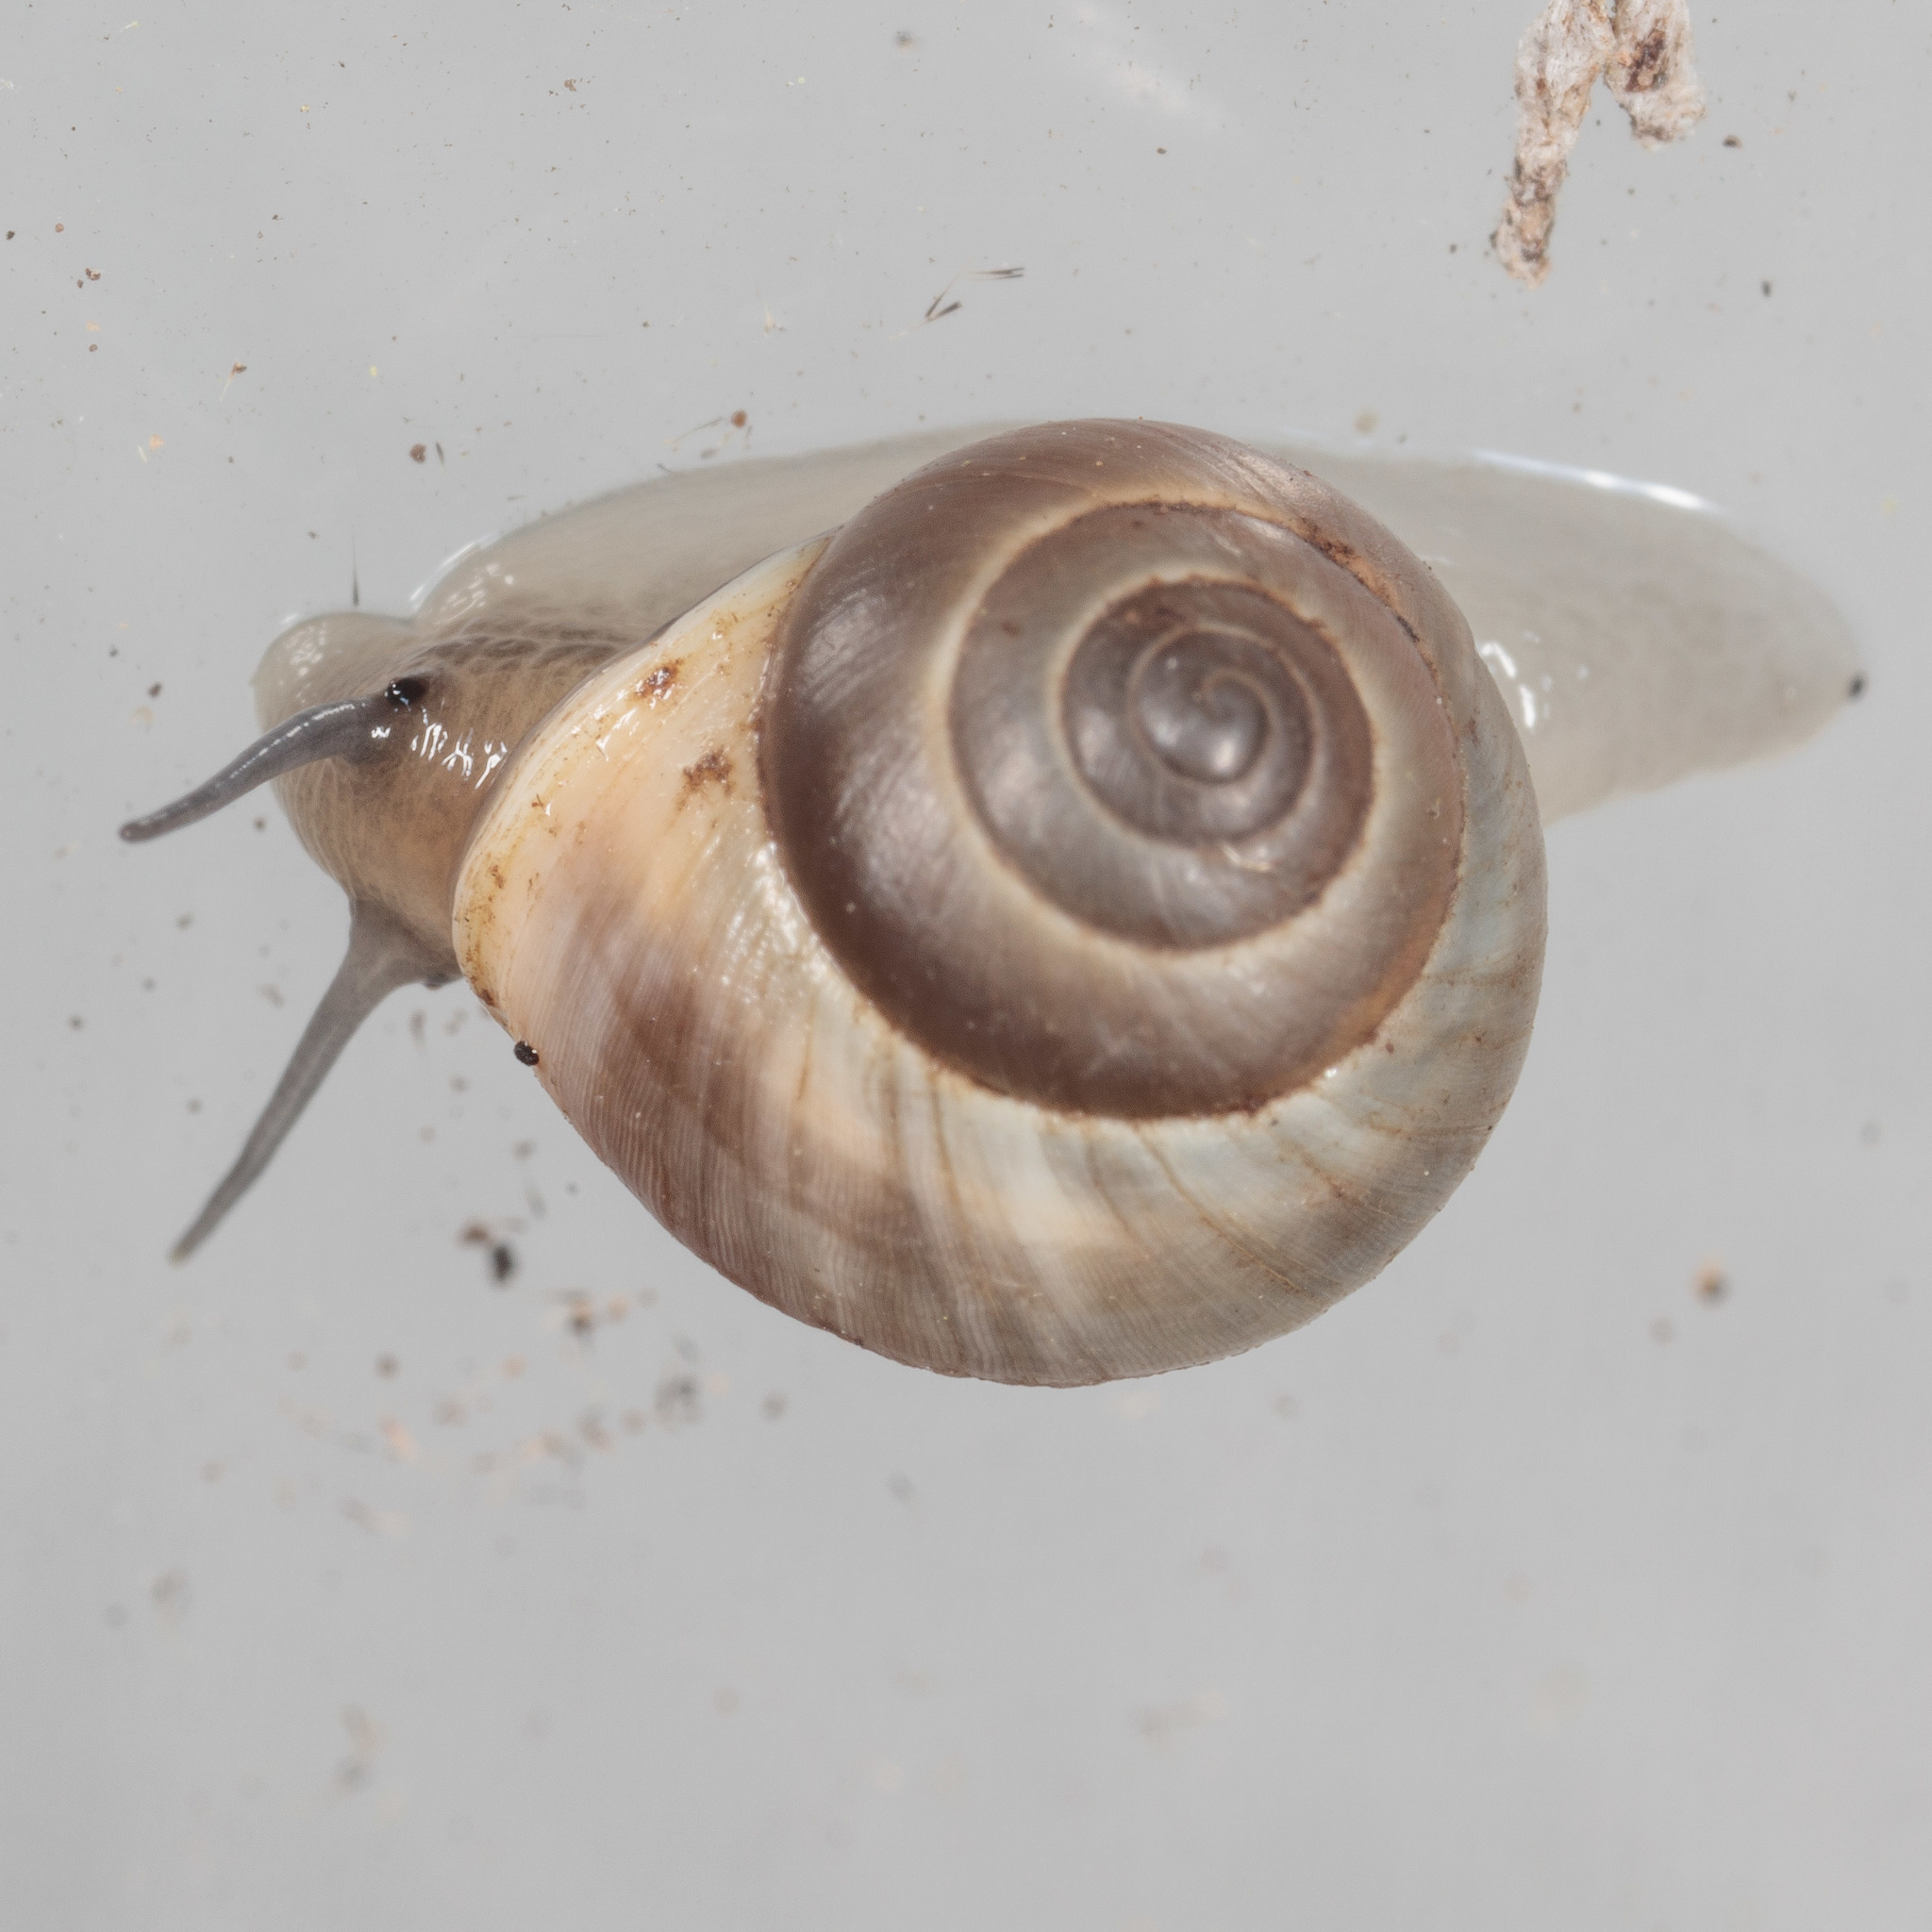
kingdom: Animalia
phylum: Mollusca
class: Gastropoda
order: Cycloneritida
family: Helicinidae
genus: Helicina
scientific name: Helicina orbiculata
